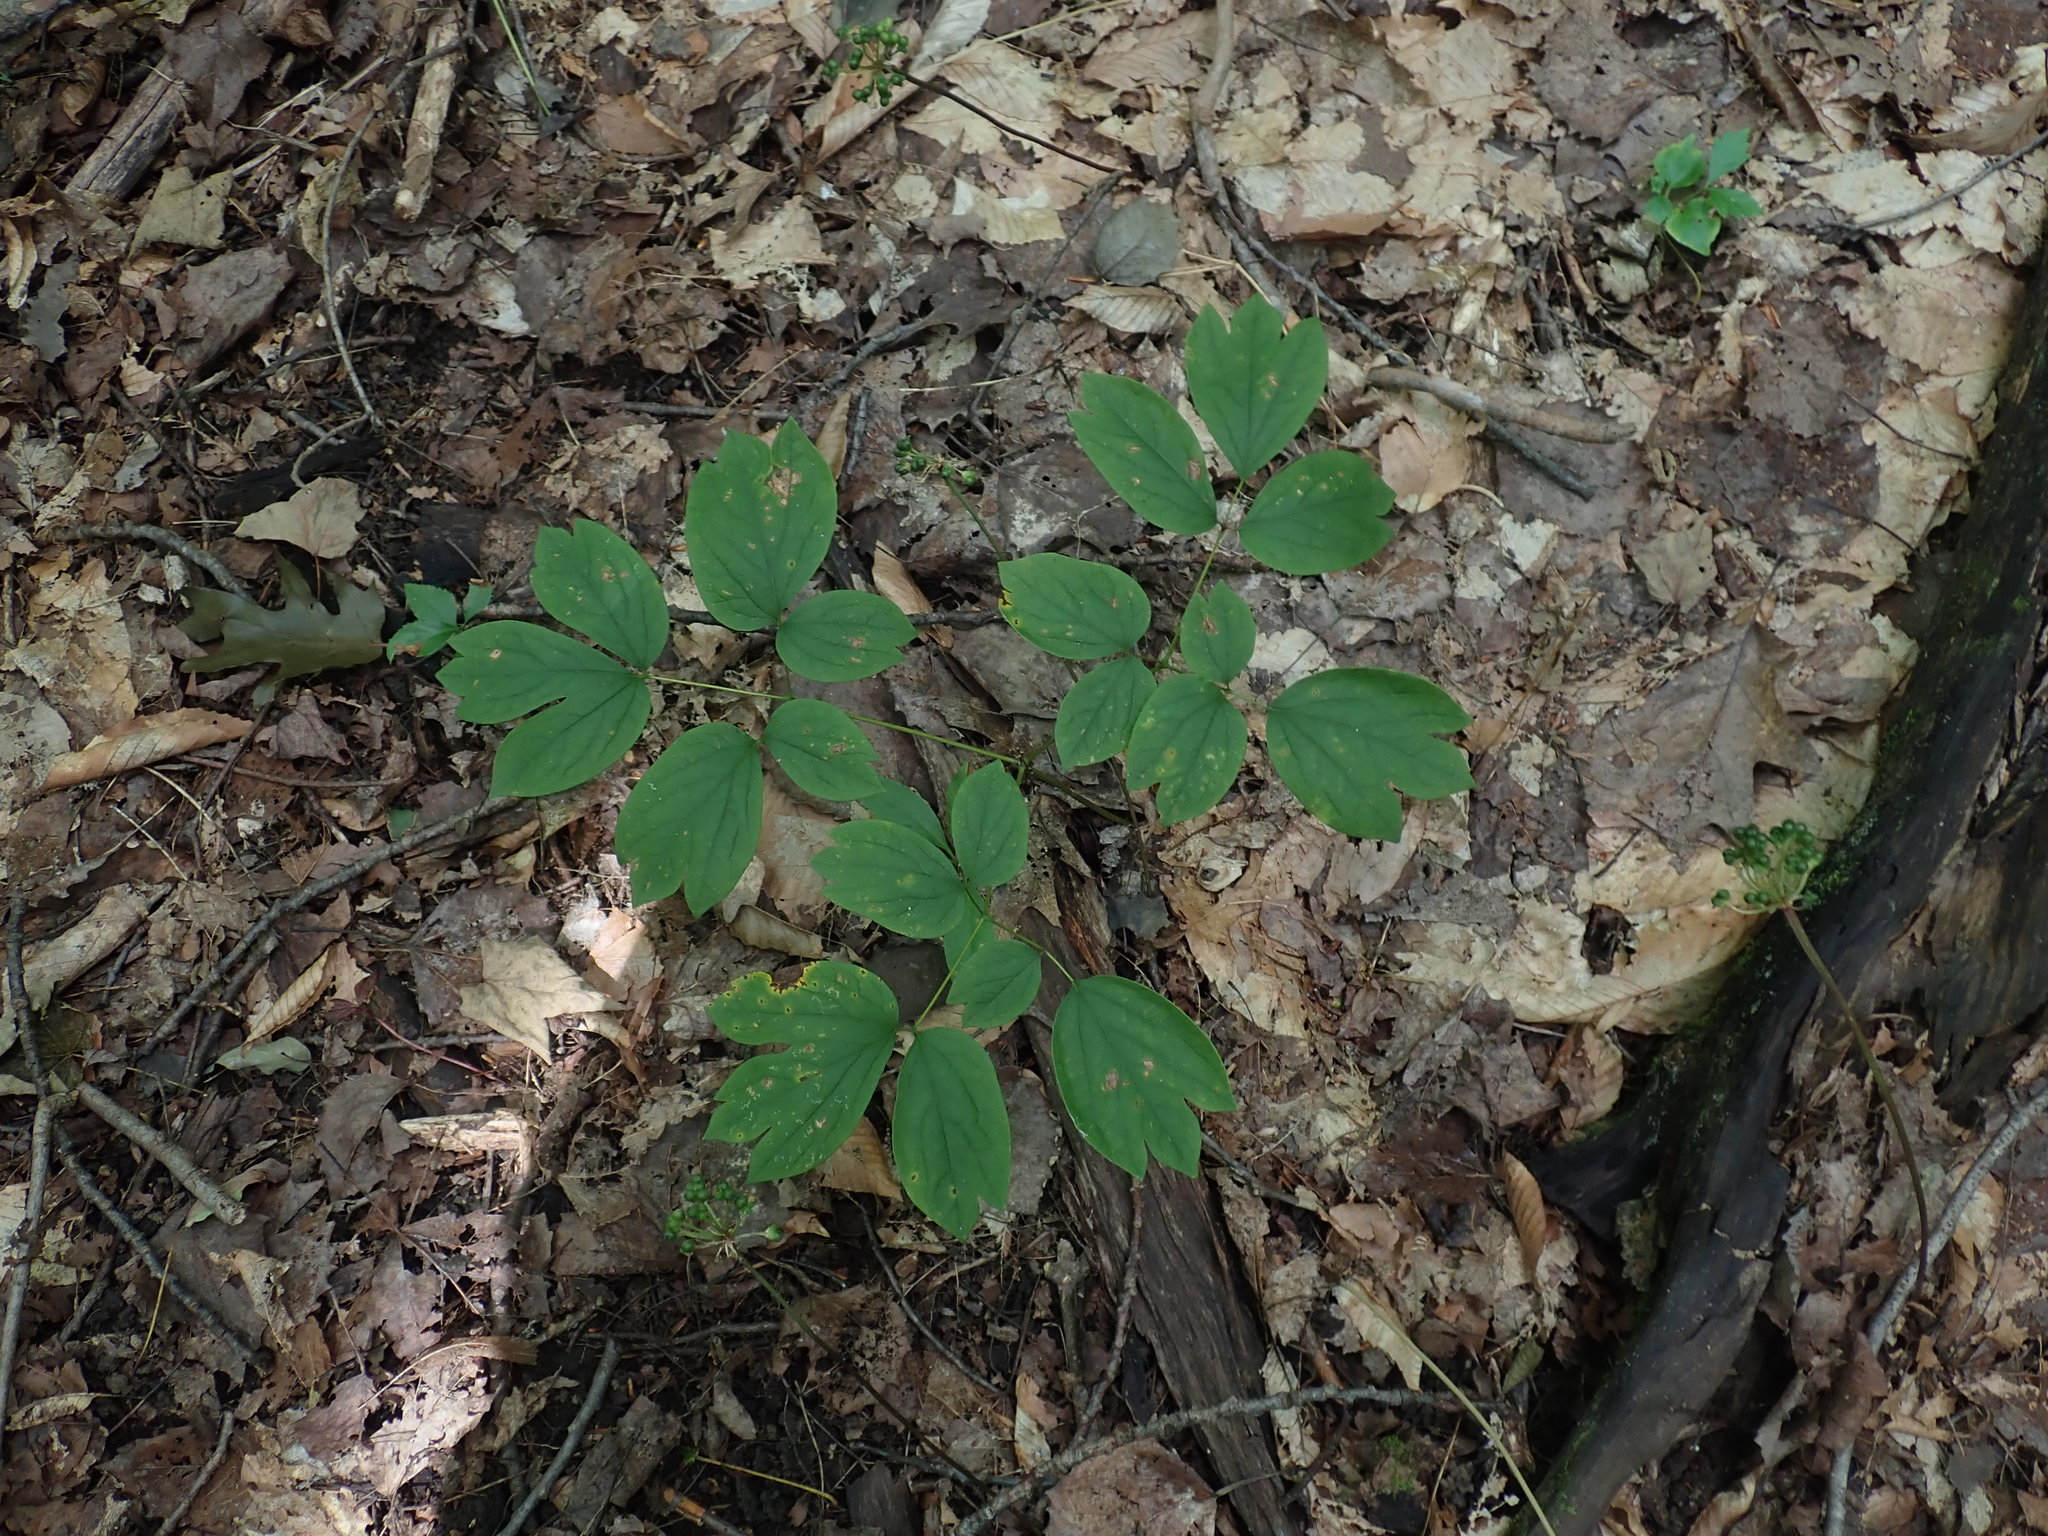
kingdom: Plantae
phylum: Tracheophyta
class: Magnoliopsida
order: Ranunculales
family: Berberidaceae
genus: Caulophyllum
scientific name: Caulophyllum
